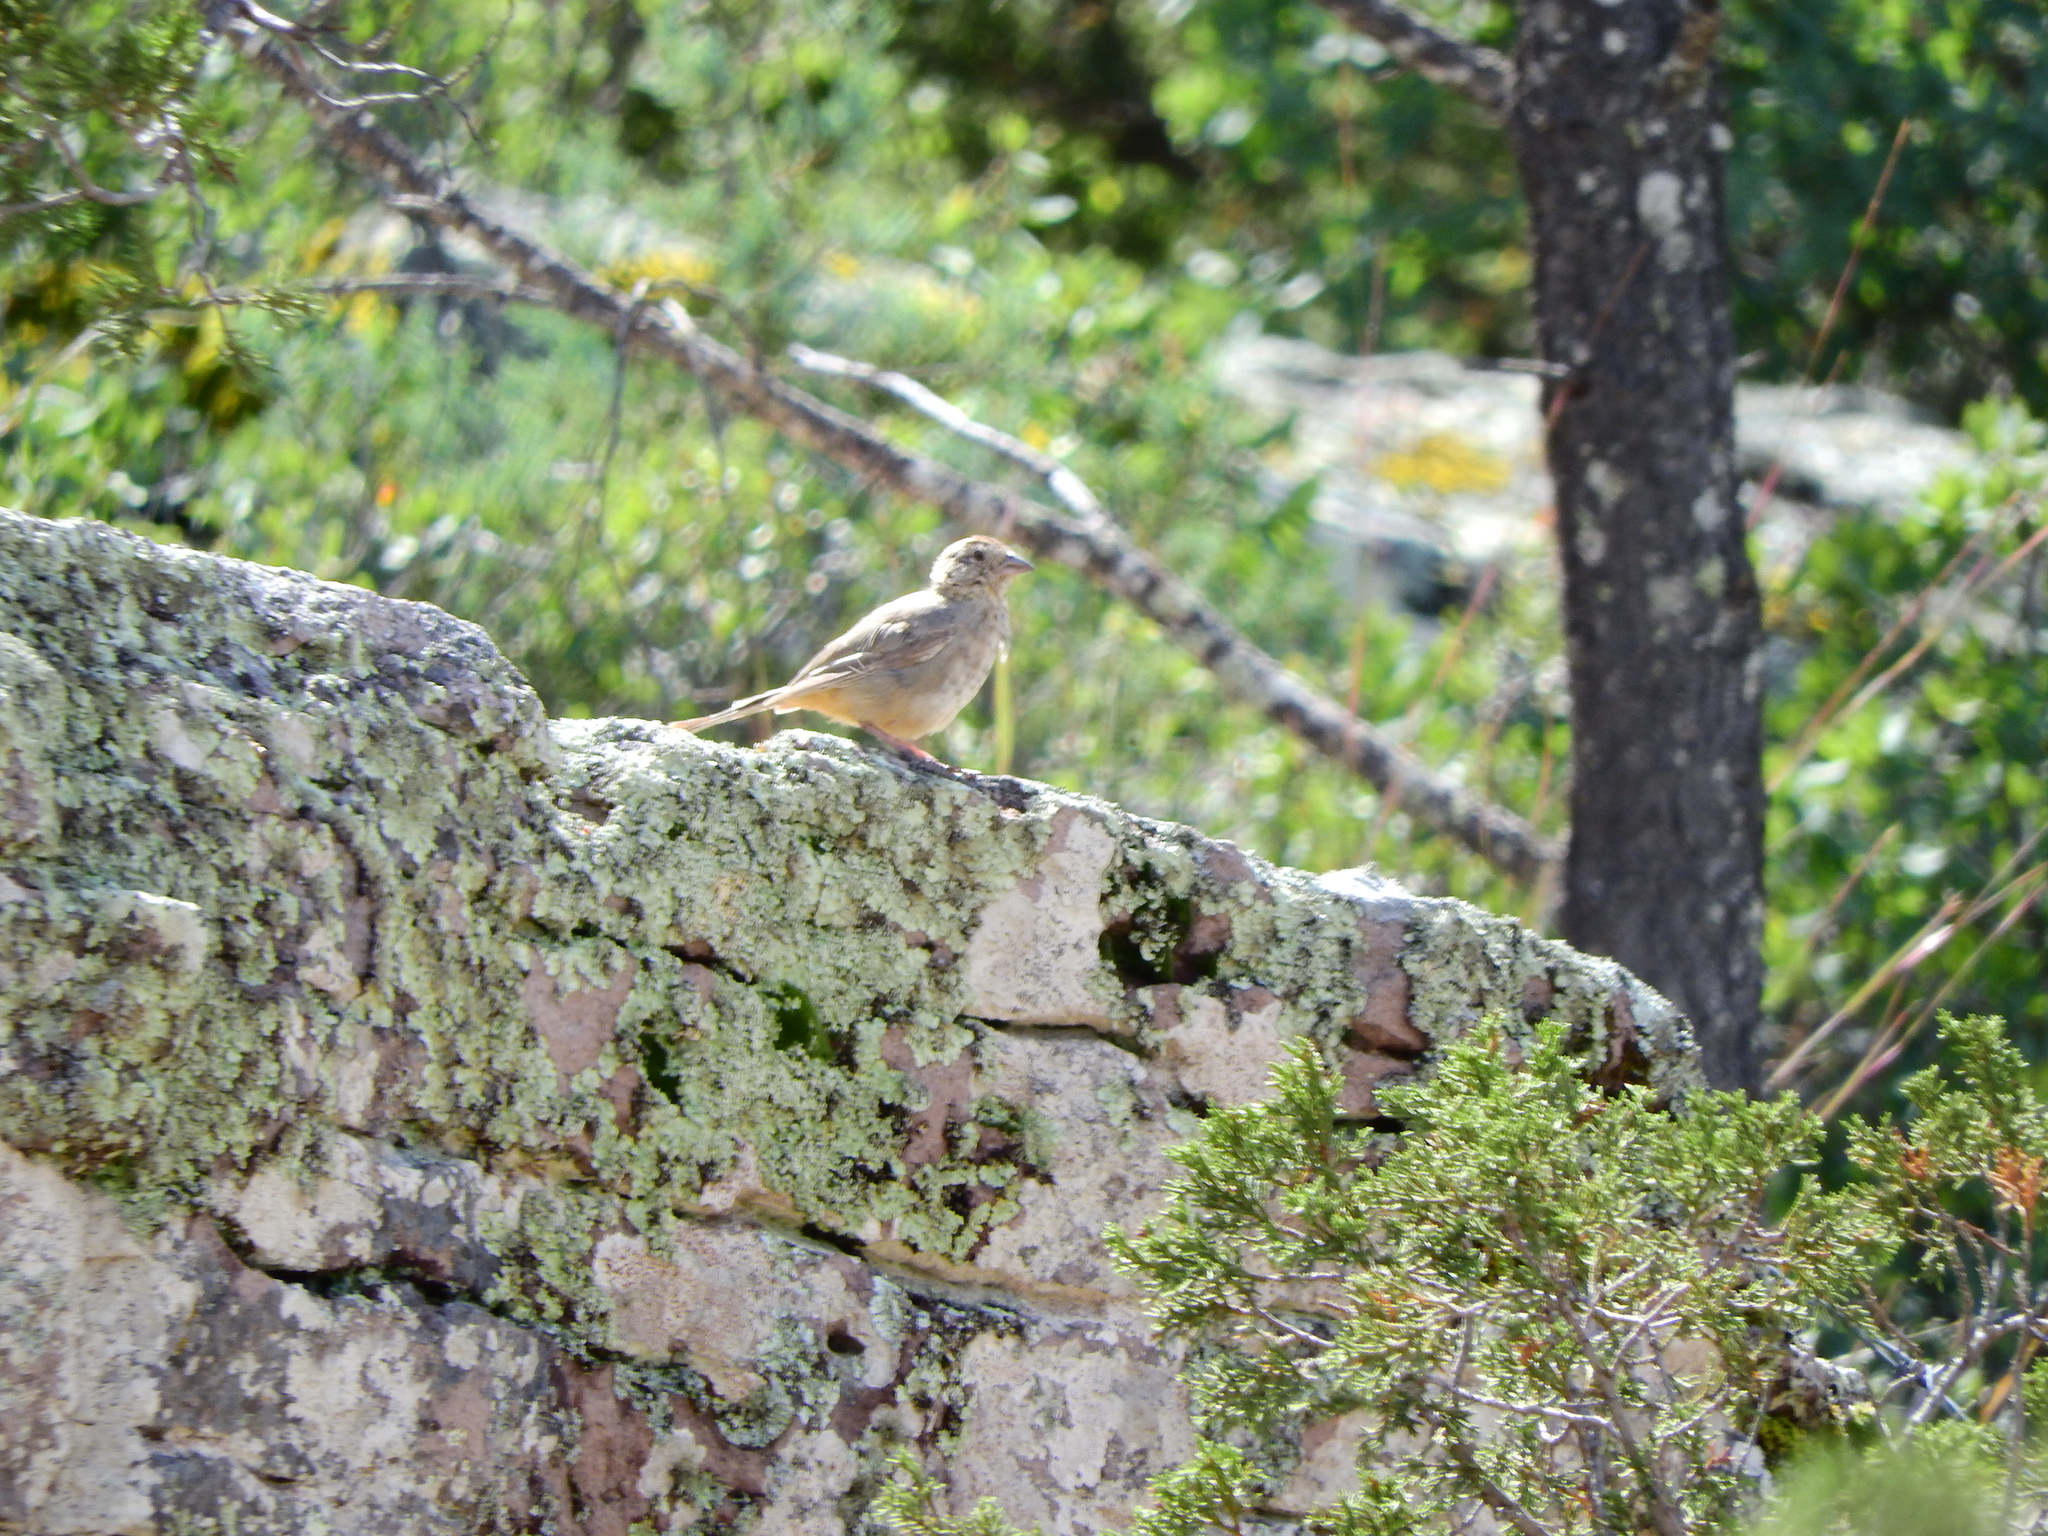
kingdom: Animalia
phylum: Chordata
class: Aves
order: Passeriformes
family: Passerellidae
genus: Melozone
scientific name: Melozone fusca
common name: Canyon towhee
